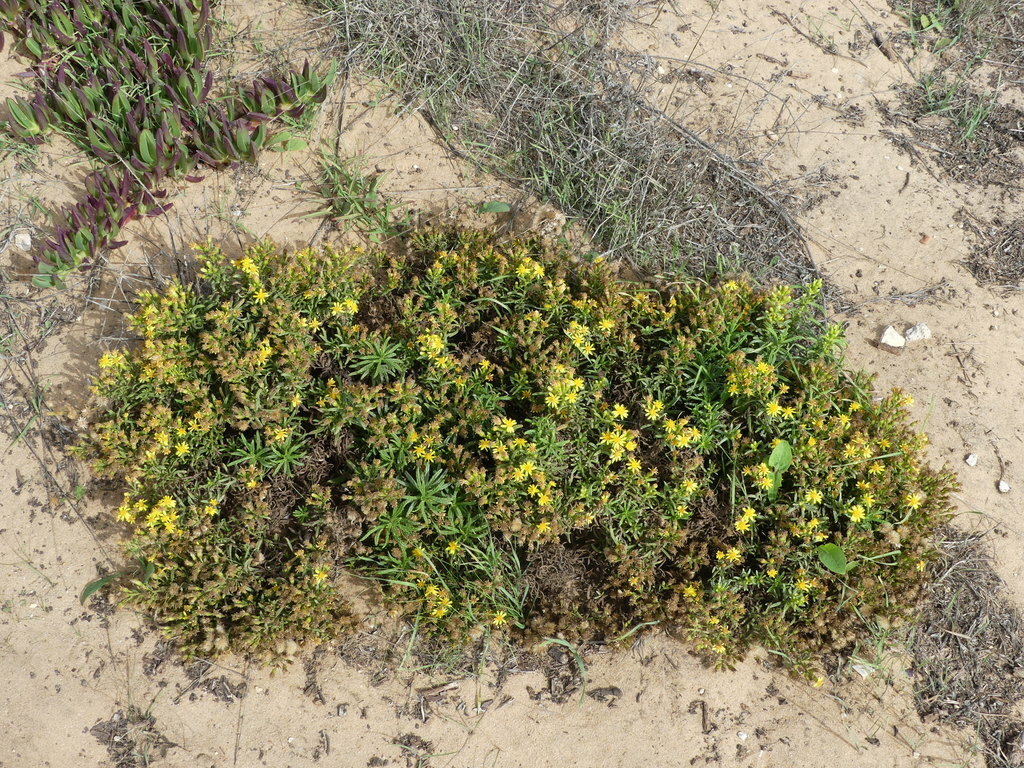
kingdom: Plantae
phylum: Tracheophyta
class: Magnoliopsida
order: Asterales
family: Asteraceae
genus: Dittrichia
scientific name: Dittrichia viscosa
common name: Woody fleabane
